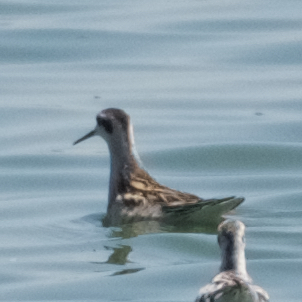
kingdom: Animalia
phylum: Chordata
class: Aves
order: Charadriiformes
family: Scolopacidae
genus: Phalaropus
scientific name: Phalaropus lobatus
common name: Red-necked phalarope
